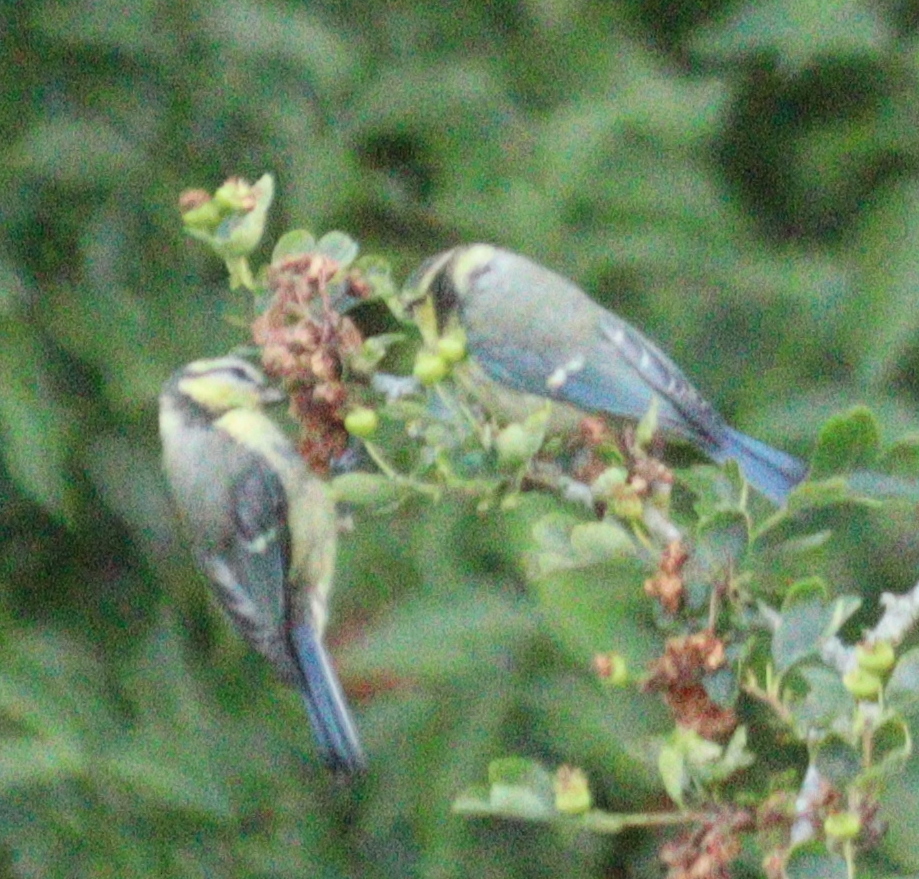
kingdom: Animalia
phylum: Chordata
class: Aves
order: Passeriformes
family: Paridae
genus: Cyanistes
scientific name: Cyanistes caeruleus
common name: Eurasian blue tit
